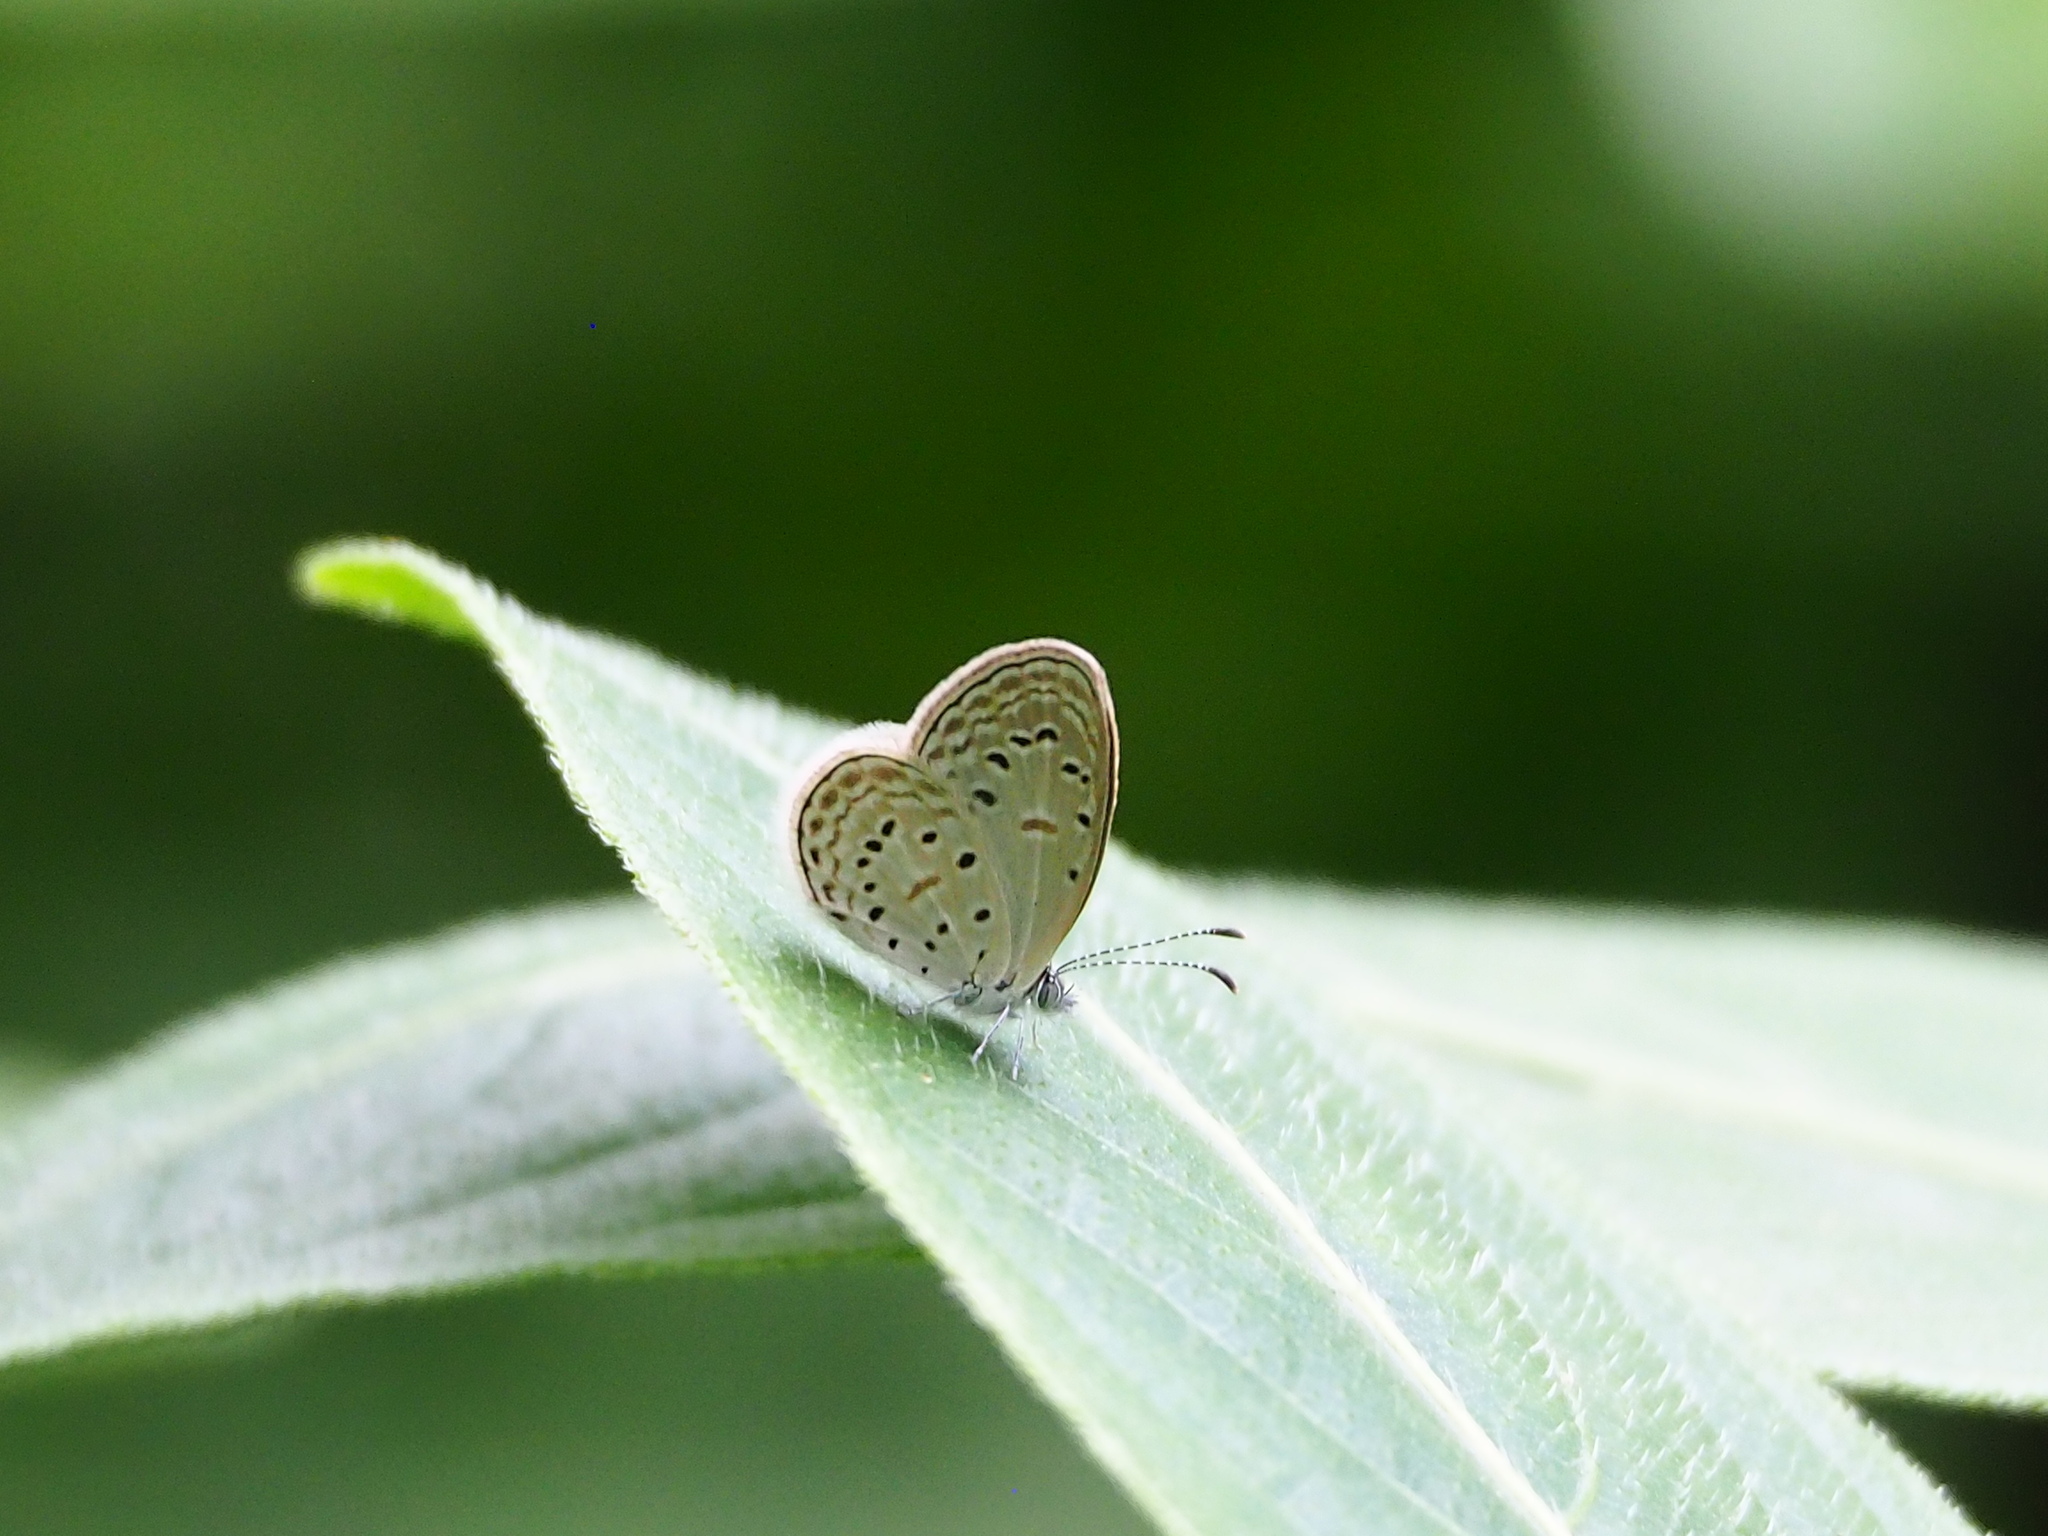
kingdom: Animalia
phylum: Arthropoda
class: Insecta
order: Lepidoptera
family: Lycaenidae
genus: Zizula
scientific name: Zizula hylax
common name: Gaika blue
